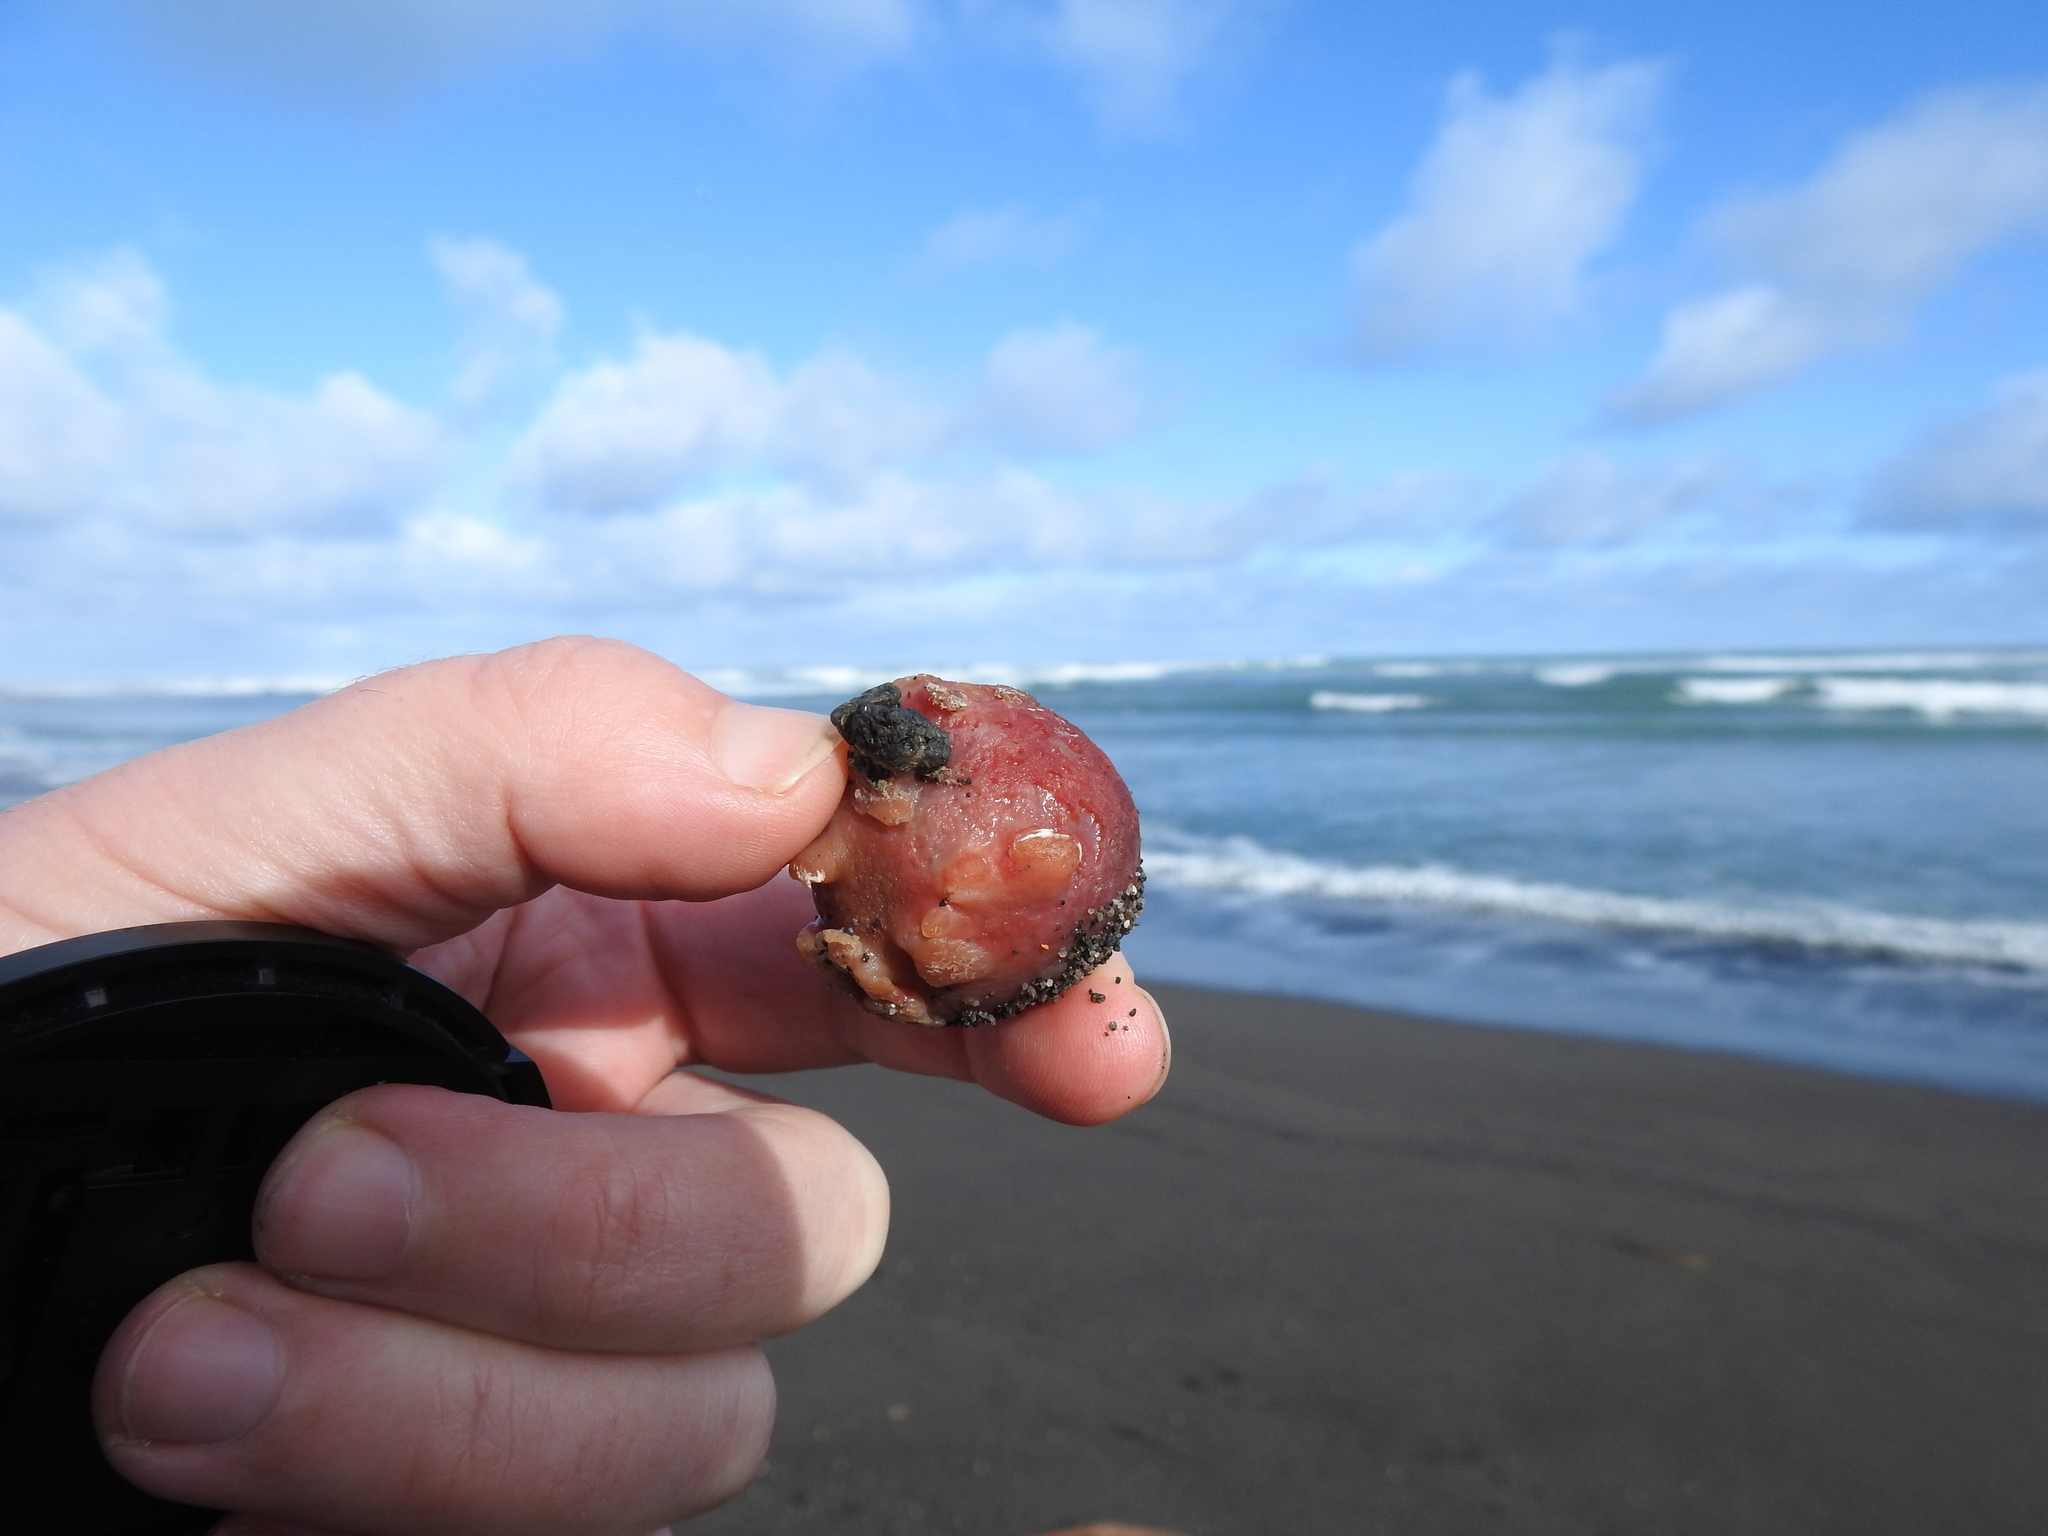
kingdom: Animalia
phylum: Porifera
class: Demospongiae
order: Tethyida
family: Tethyidae
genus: Tethya
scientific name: Tethya bergquistae
